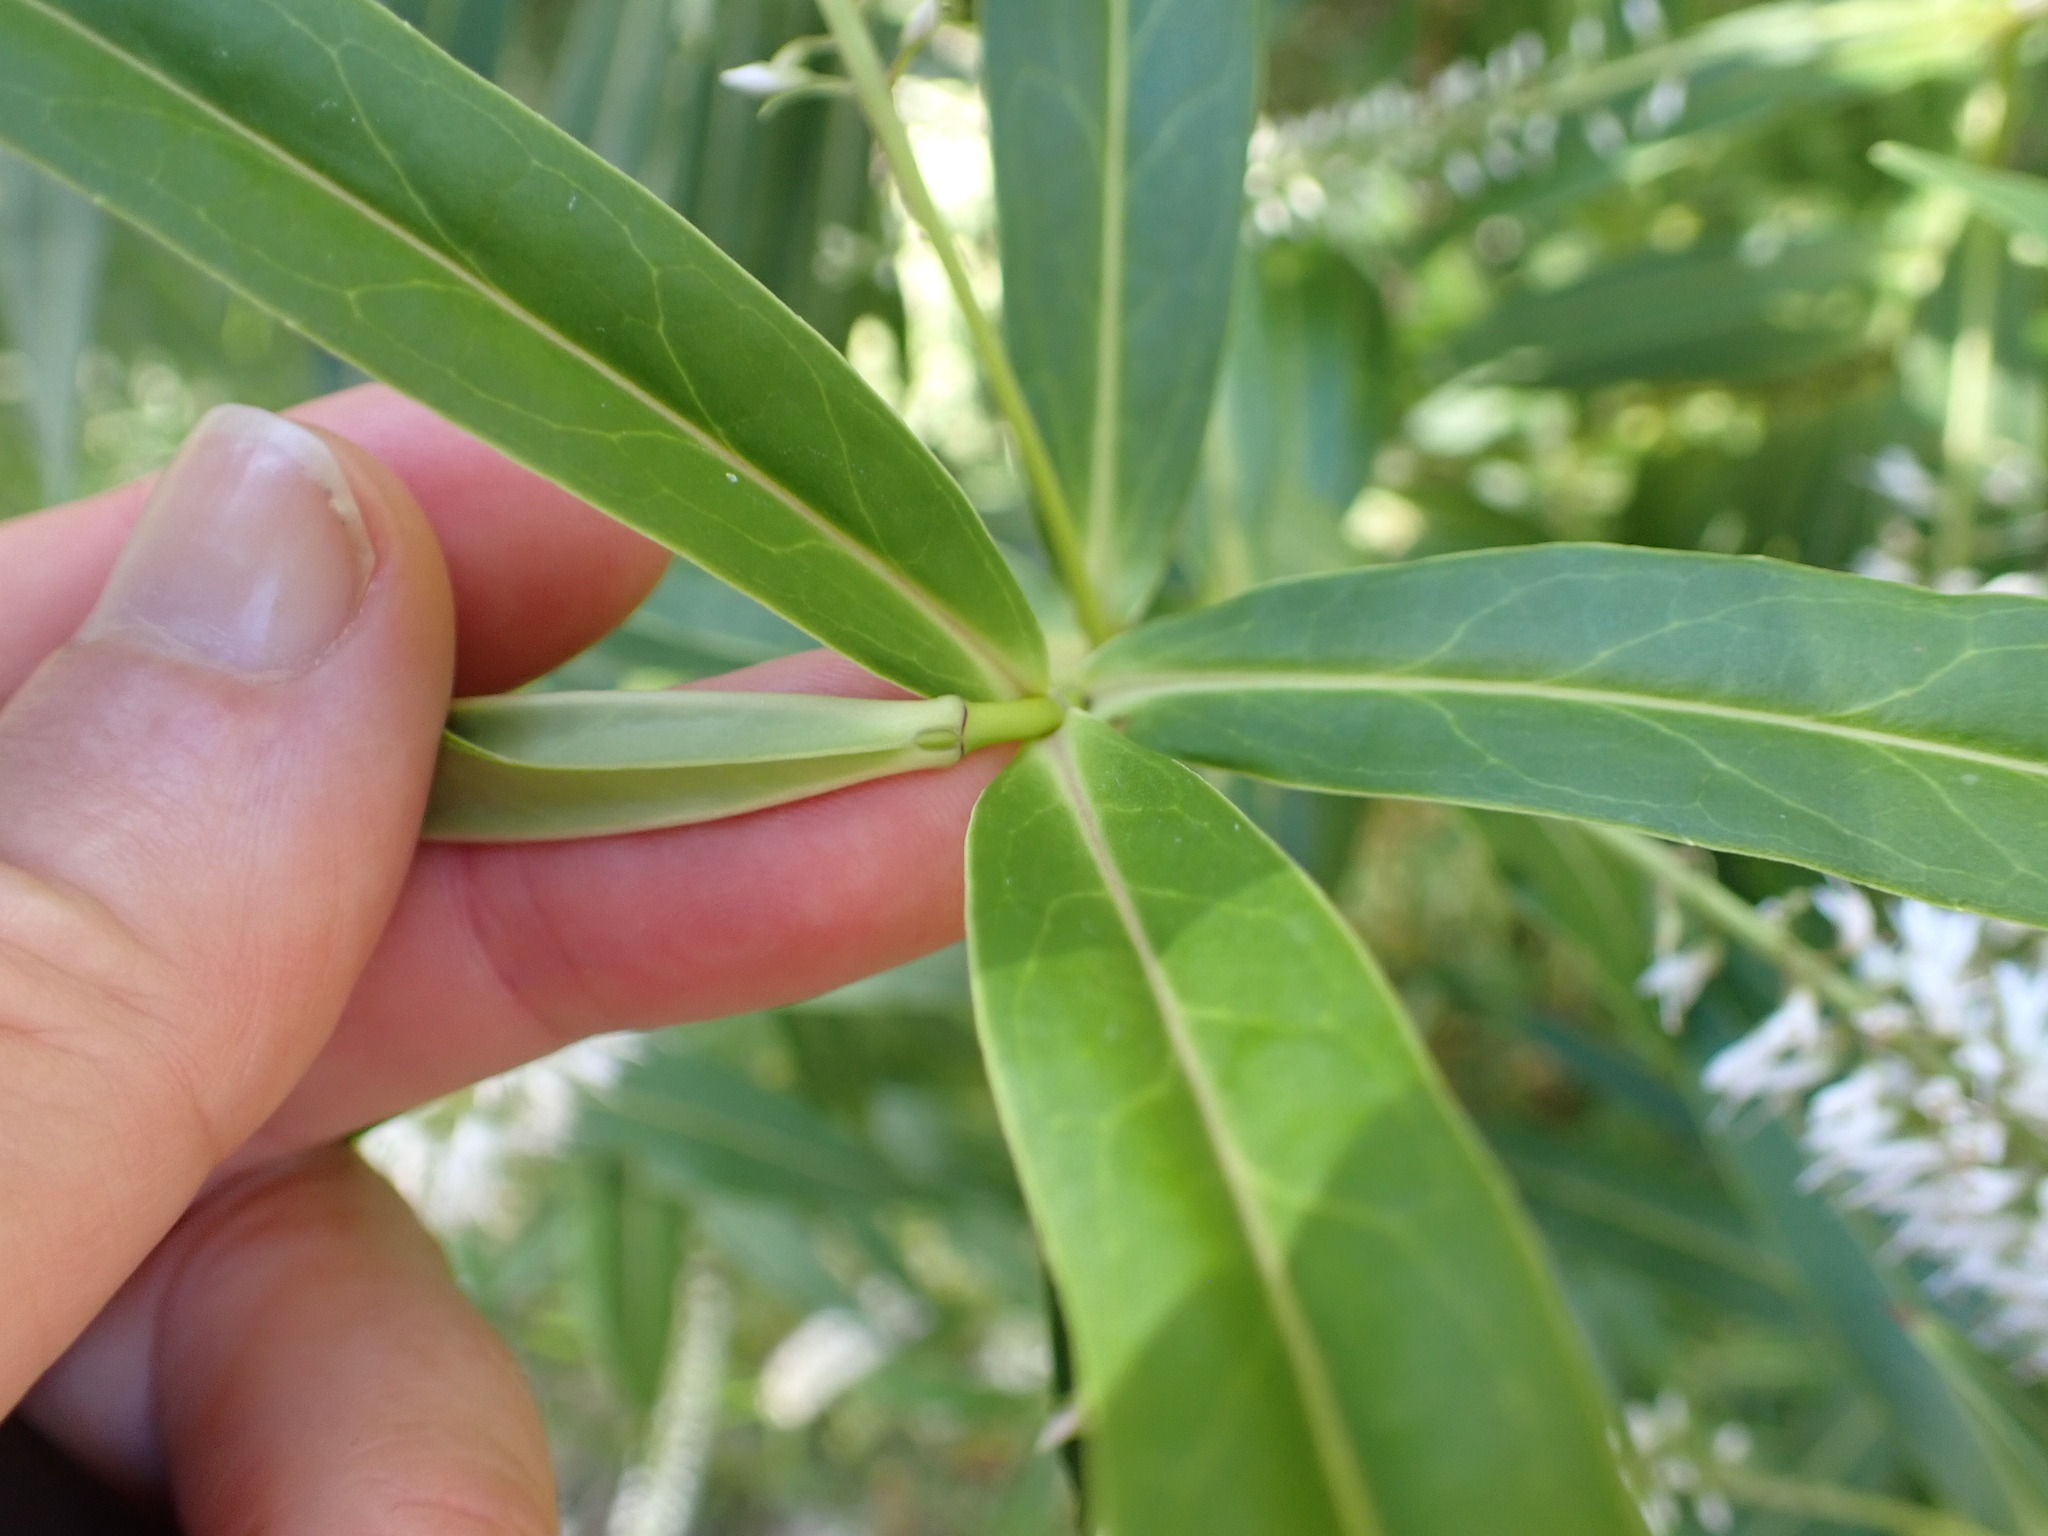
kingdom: Plantae
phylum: Tracheophyta
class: Magnoliopsida
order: Lamiales
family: Plantaginaceae
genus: Veronica
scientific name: Veronica salicifolia
